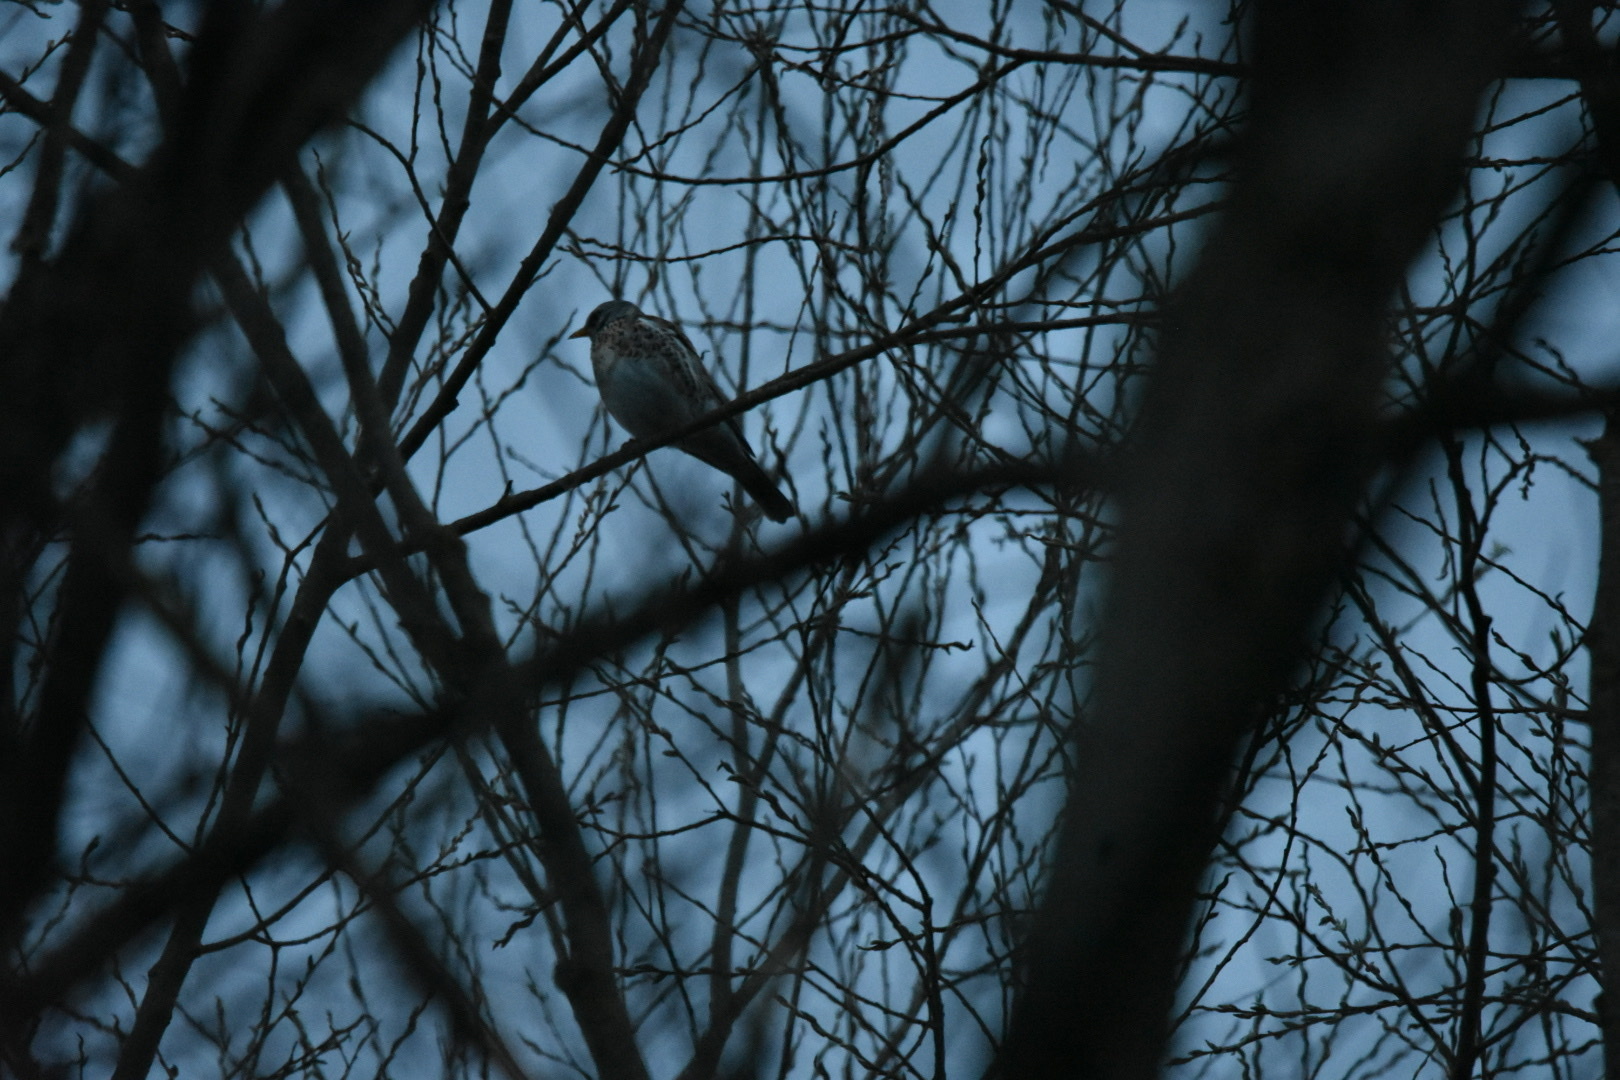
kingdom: Animalia
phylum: Chordata
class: Aves
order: Passeriformes
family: Turdidae
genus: Turdus
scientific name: Turdus pilaris
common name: Fieldfare
